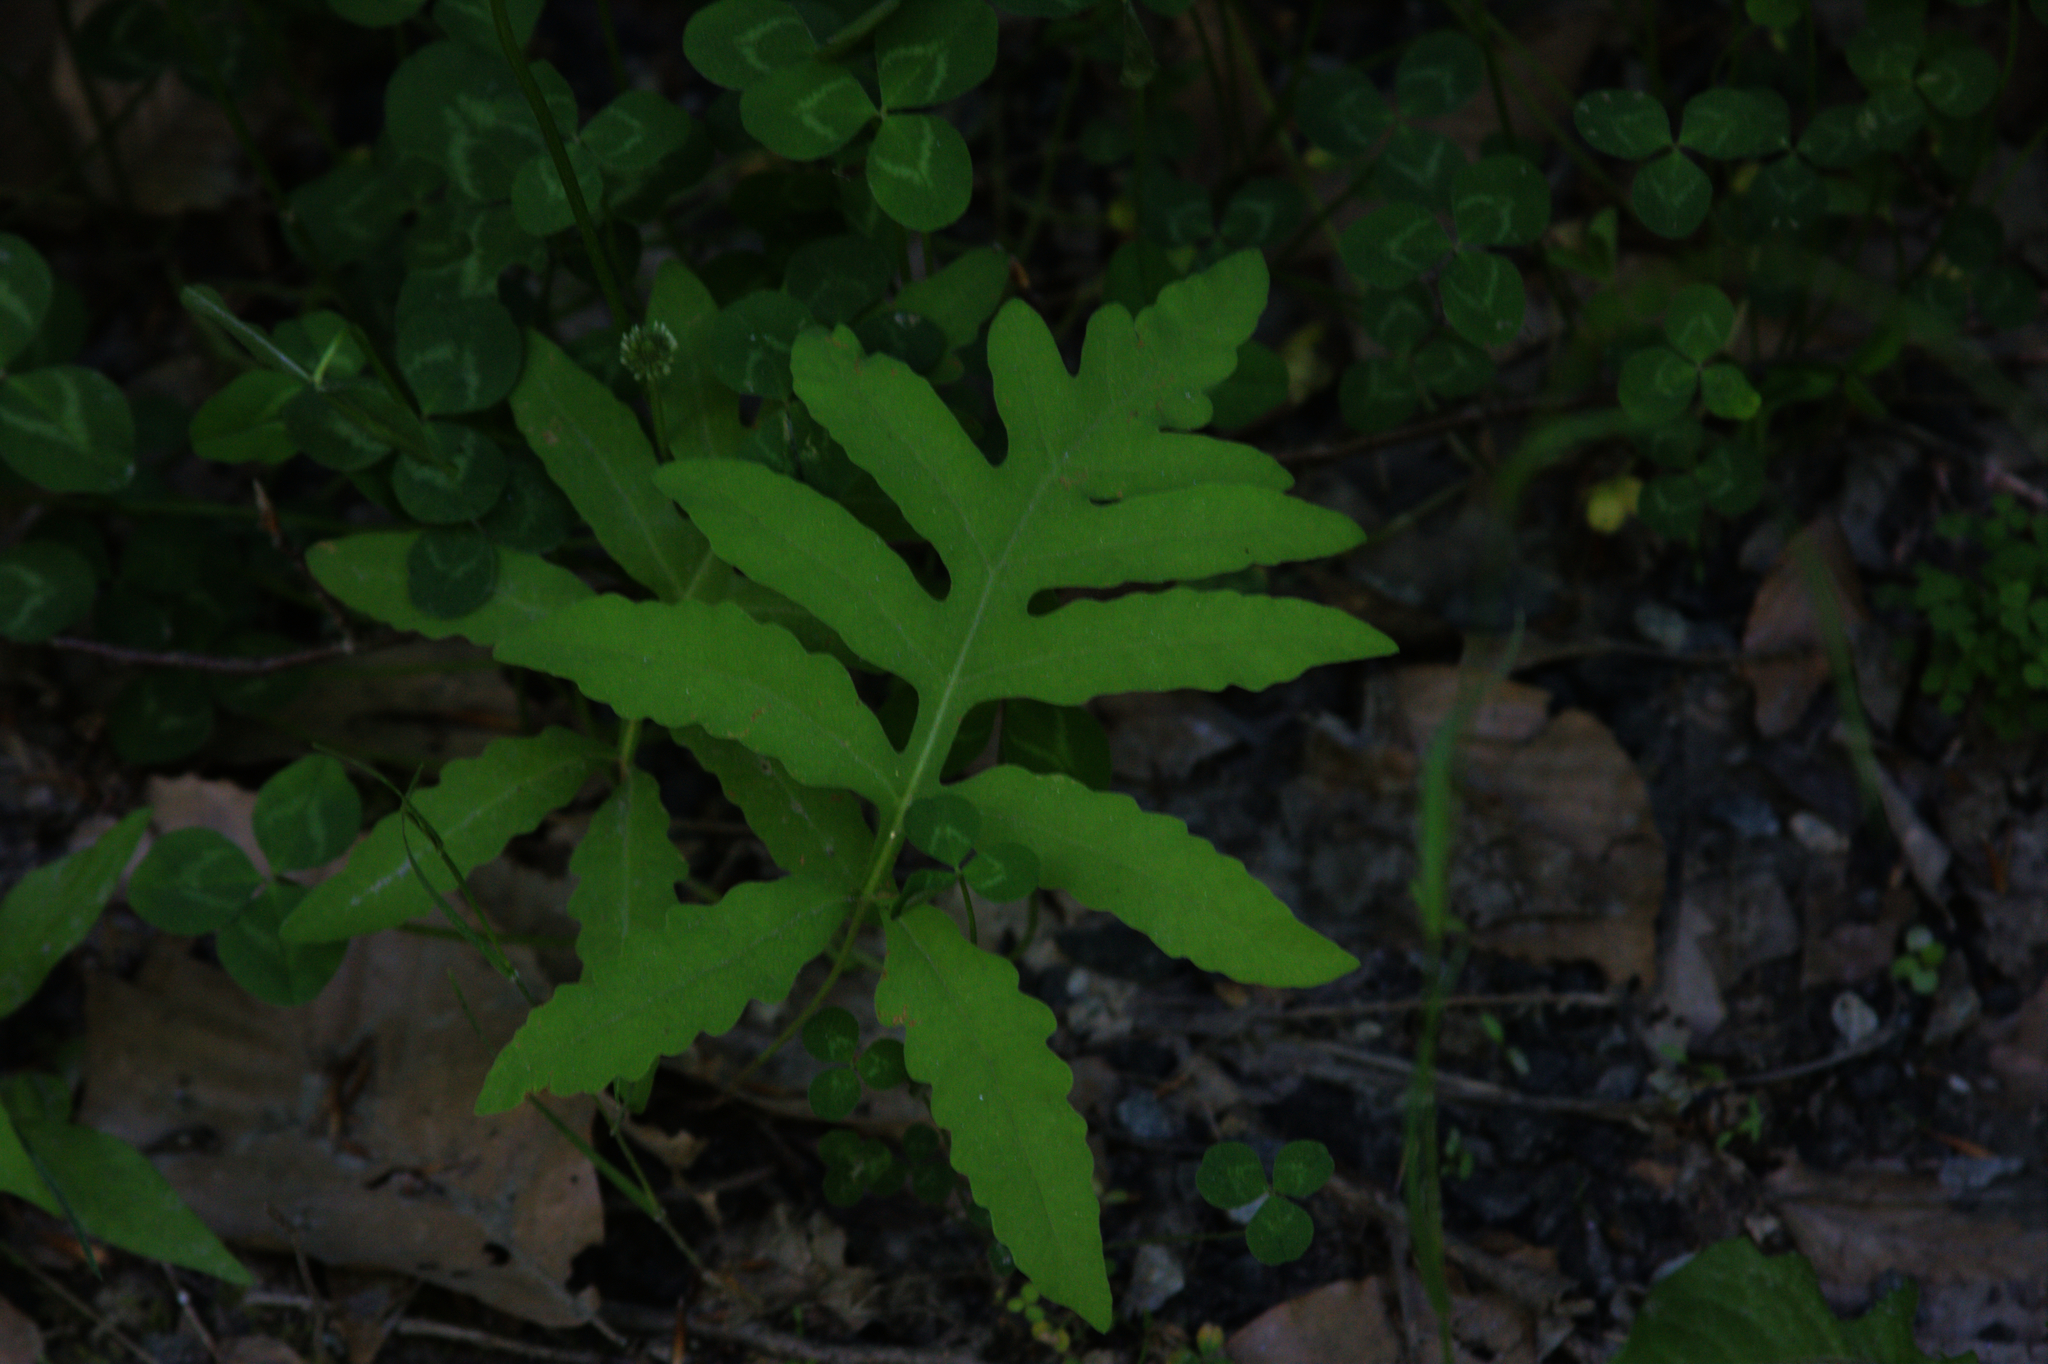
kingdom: Plantae
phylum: Tracheophyta
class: Polypodiopsida
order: Polypodiales
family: Onocleaceae
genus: Onoclea
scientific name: Onoclea sensibilis
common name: Sensitive fern
